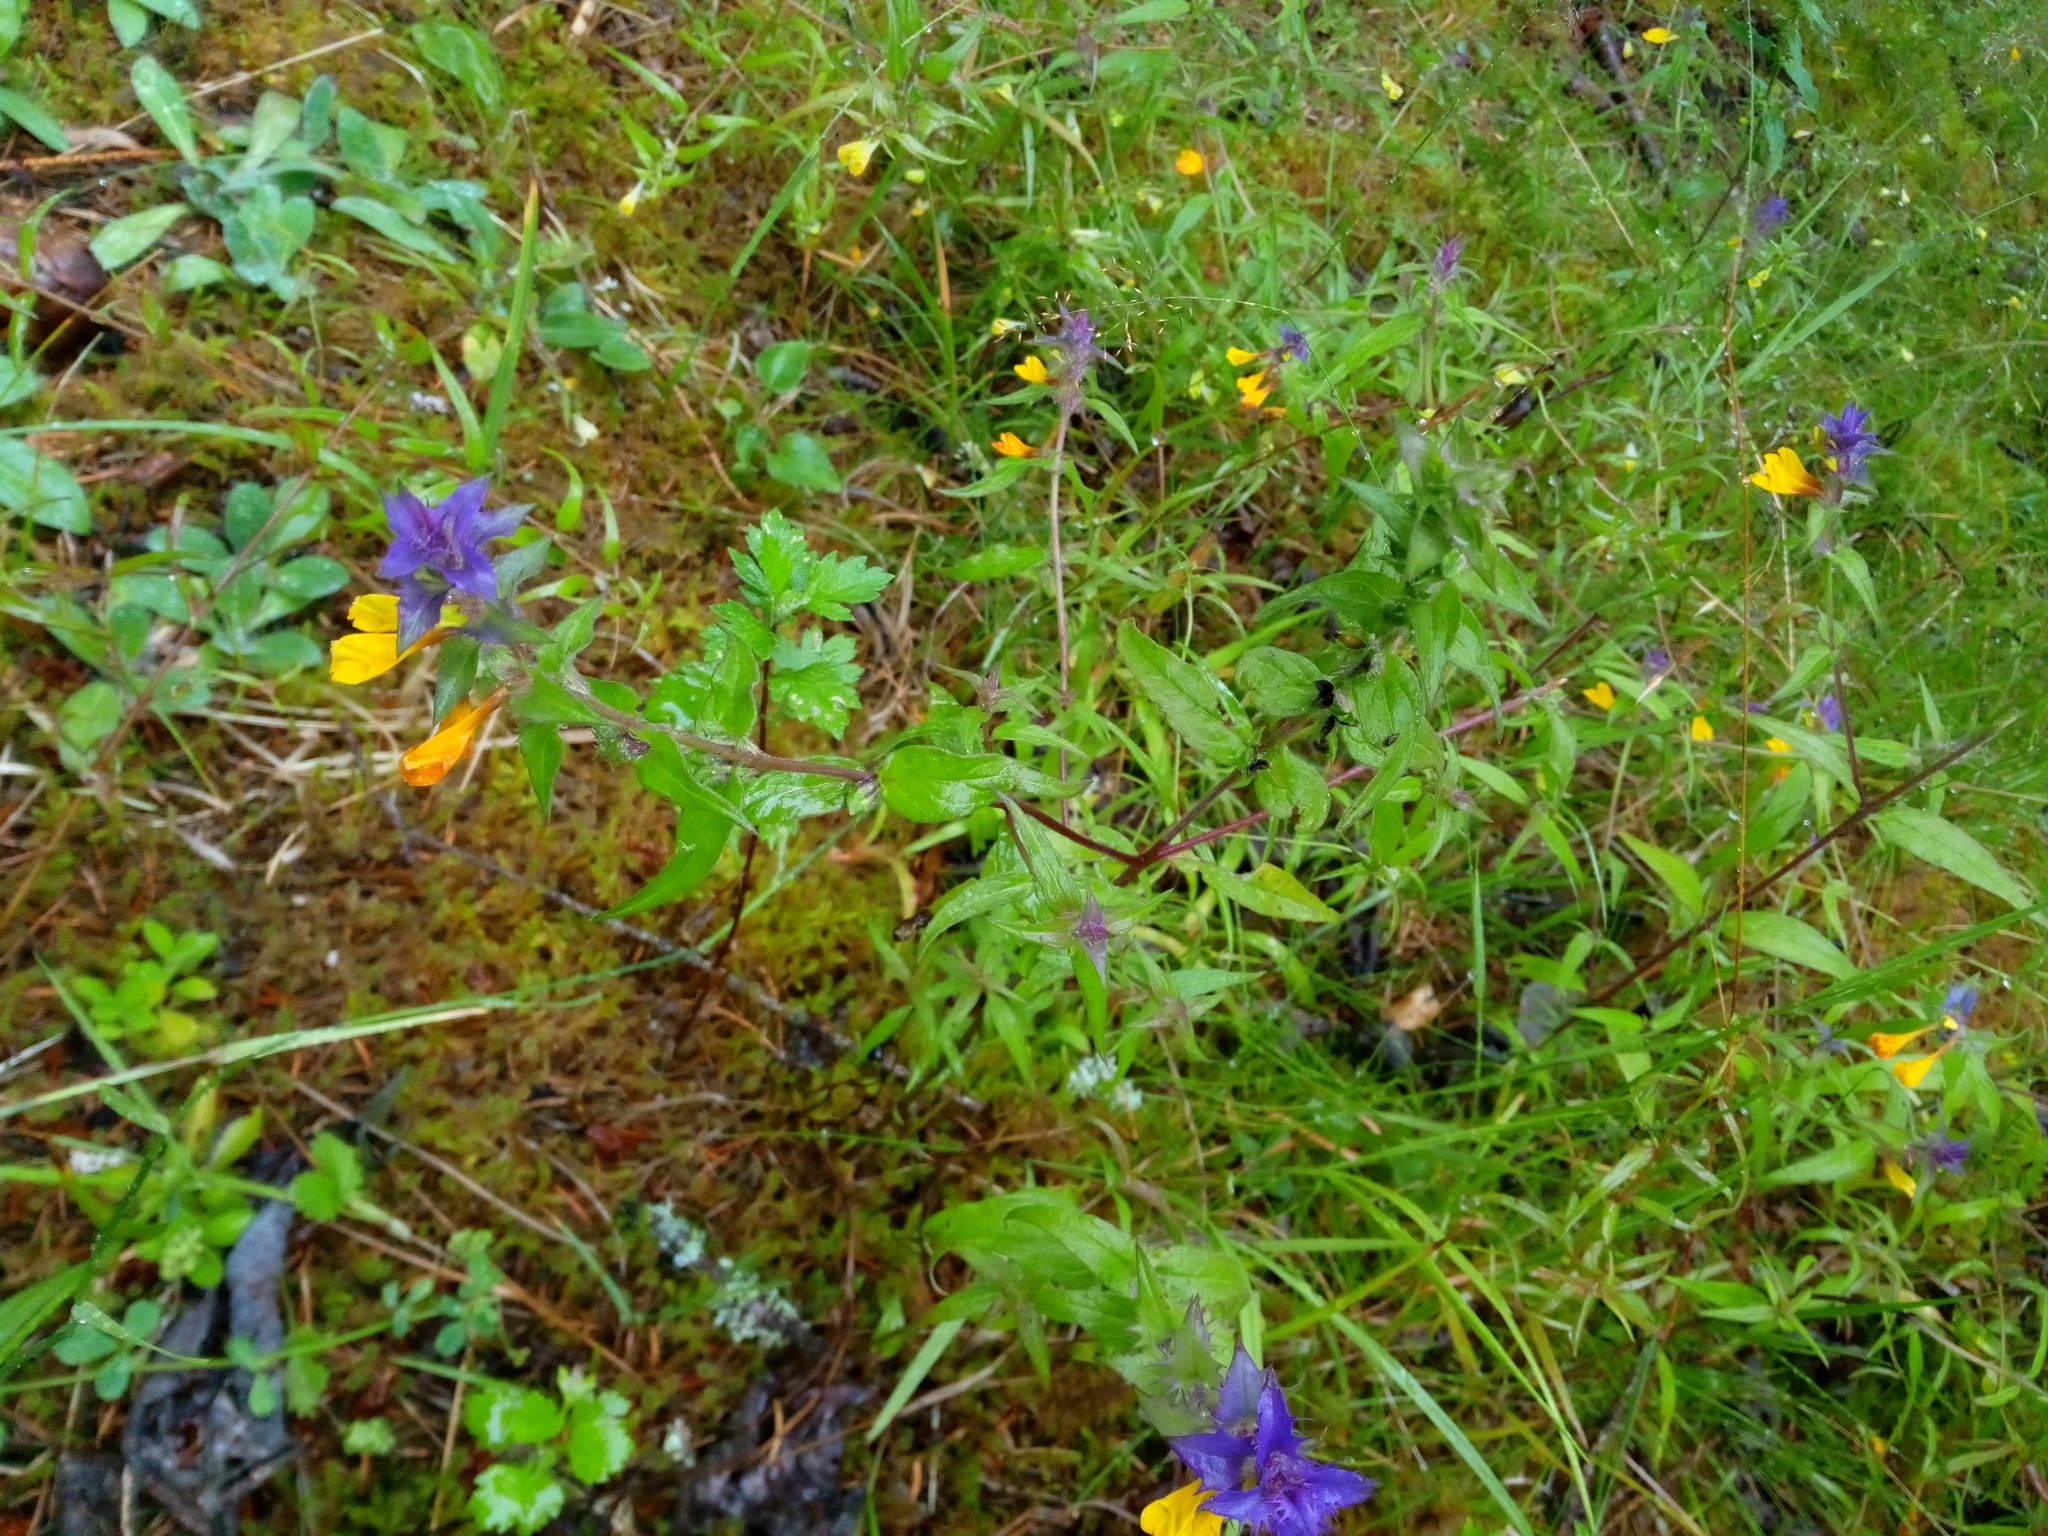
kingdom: Plantae
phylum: Tracheophyta
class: Magnoliopsida
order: Lamiales
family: Orobanchaceae
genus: Melampyrum
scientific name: Melampyrum nemorosum
